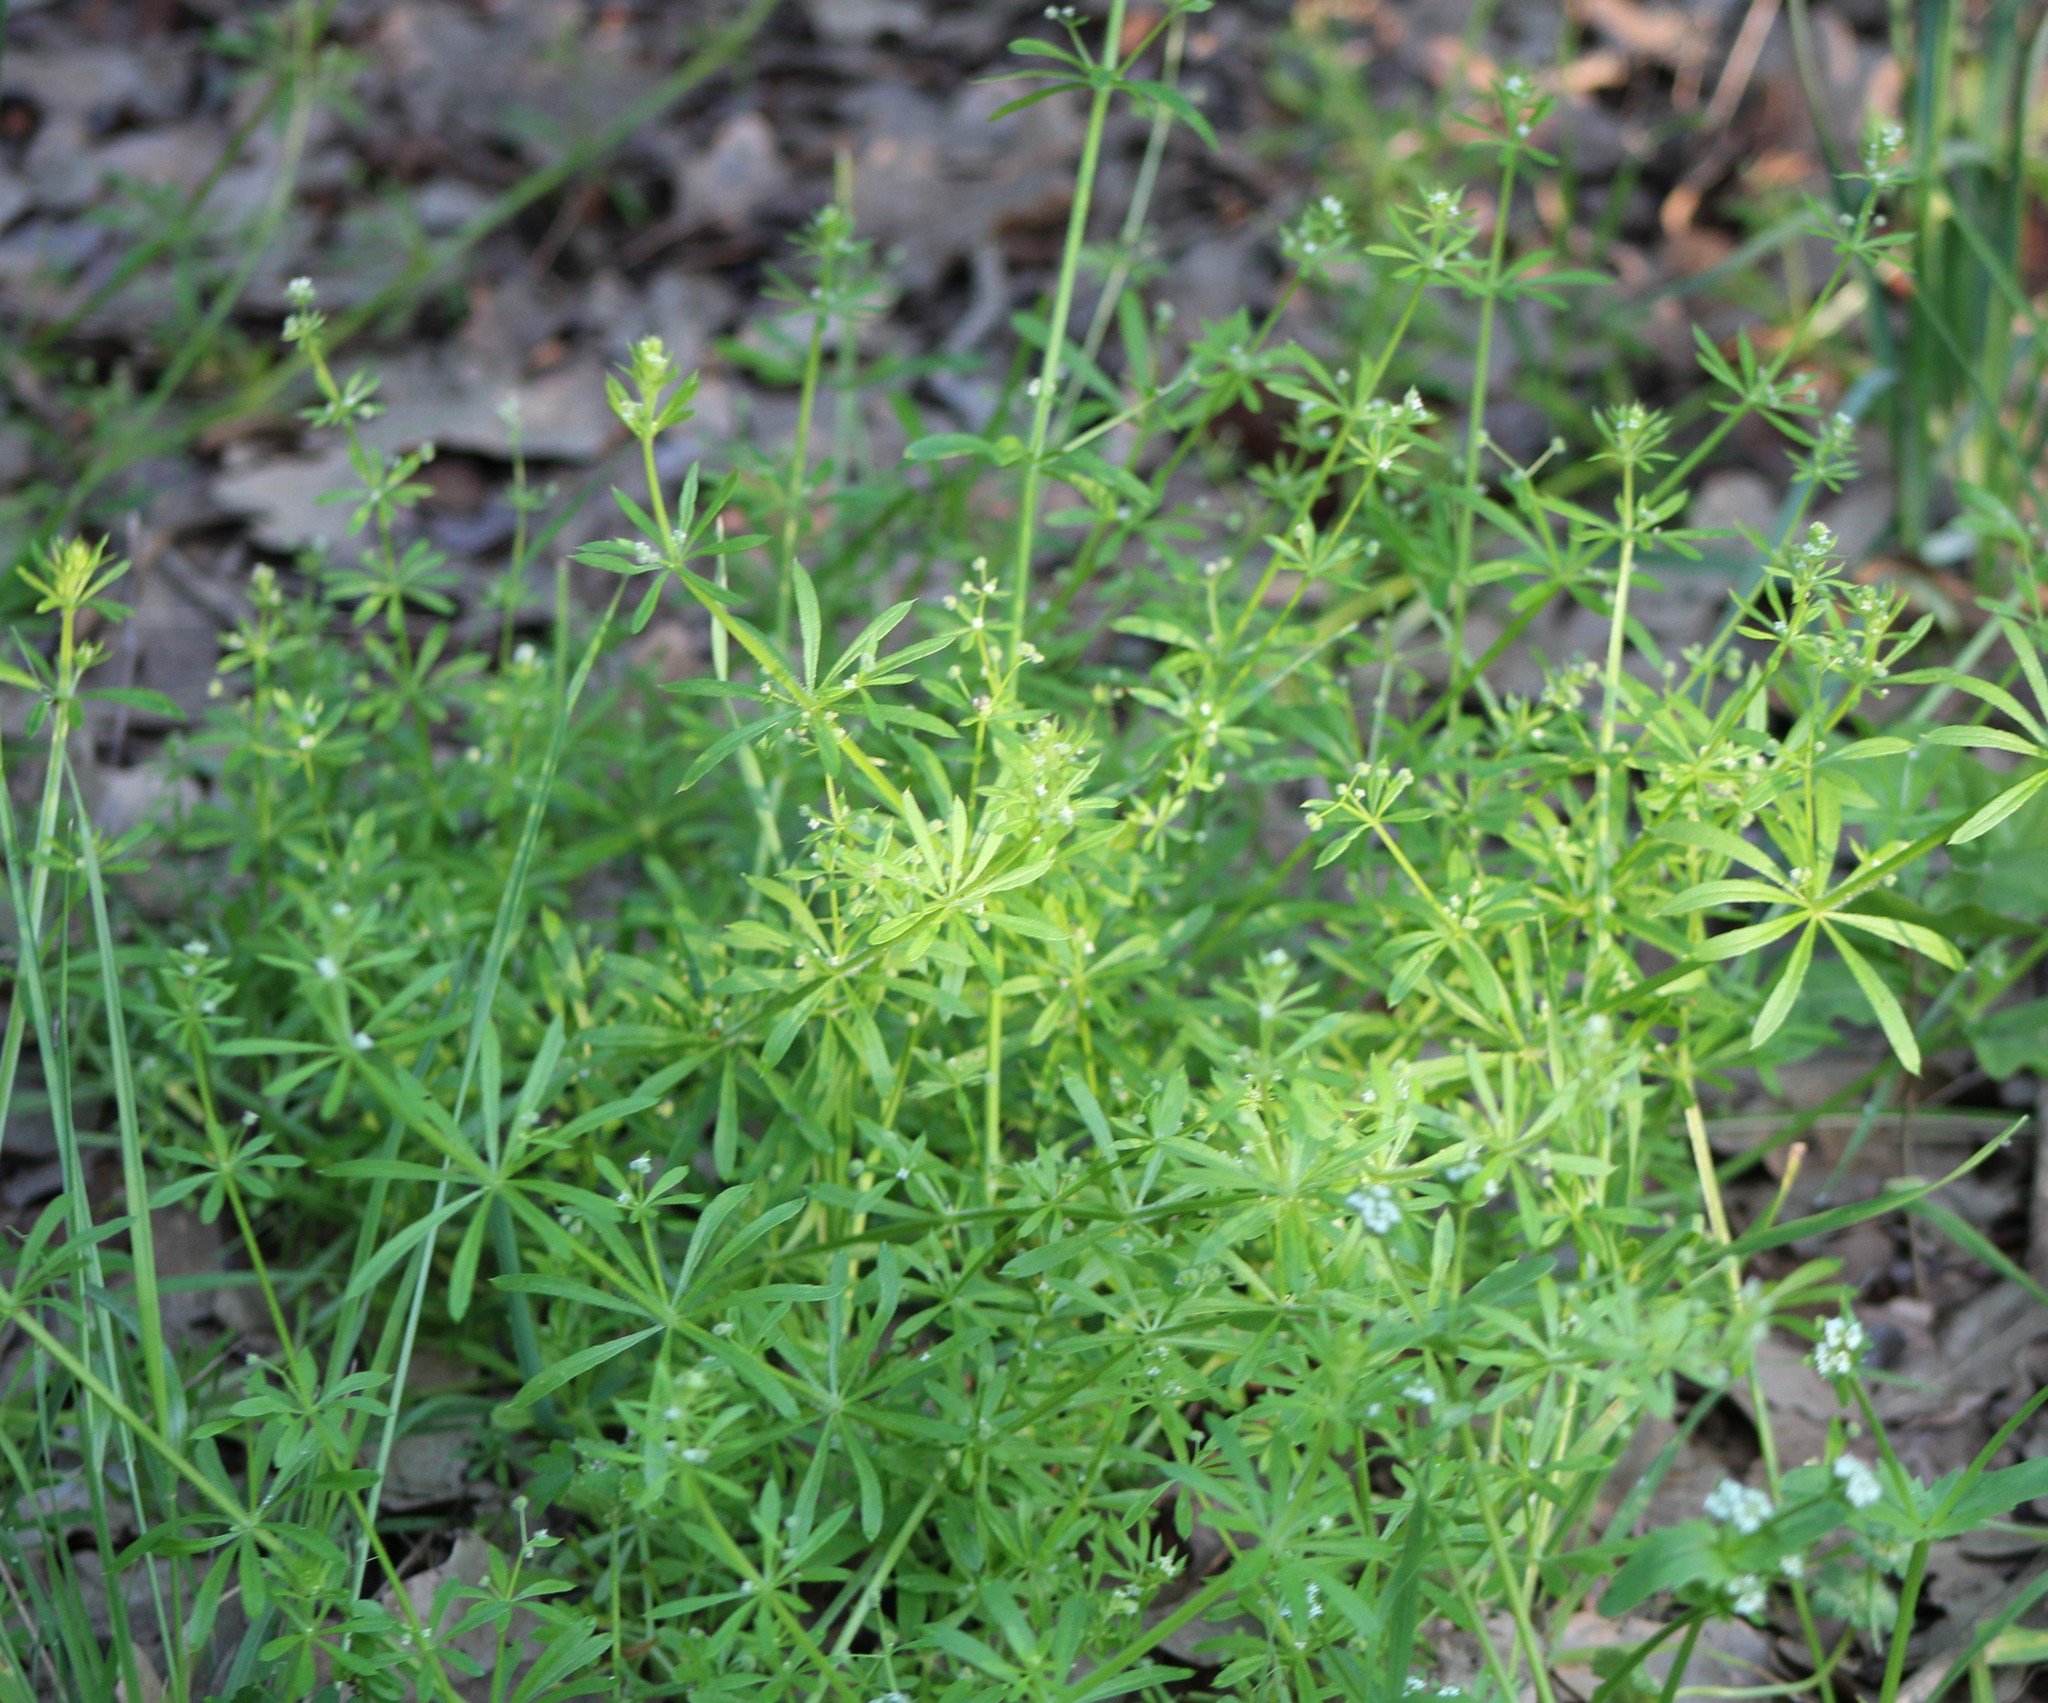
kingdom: Plantae
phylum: Tracheophyta
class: Magnoliopsida
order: Gentianales
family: Rubiaceae
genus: Galium
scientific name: Galium aparine
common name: Cleavers
